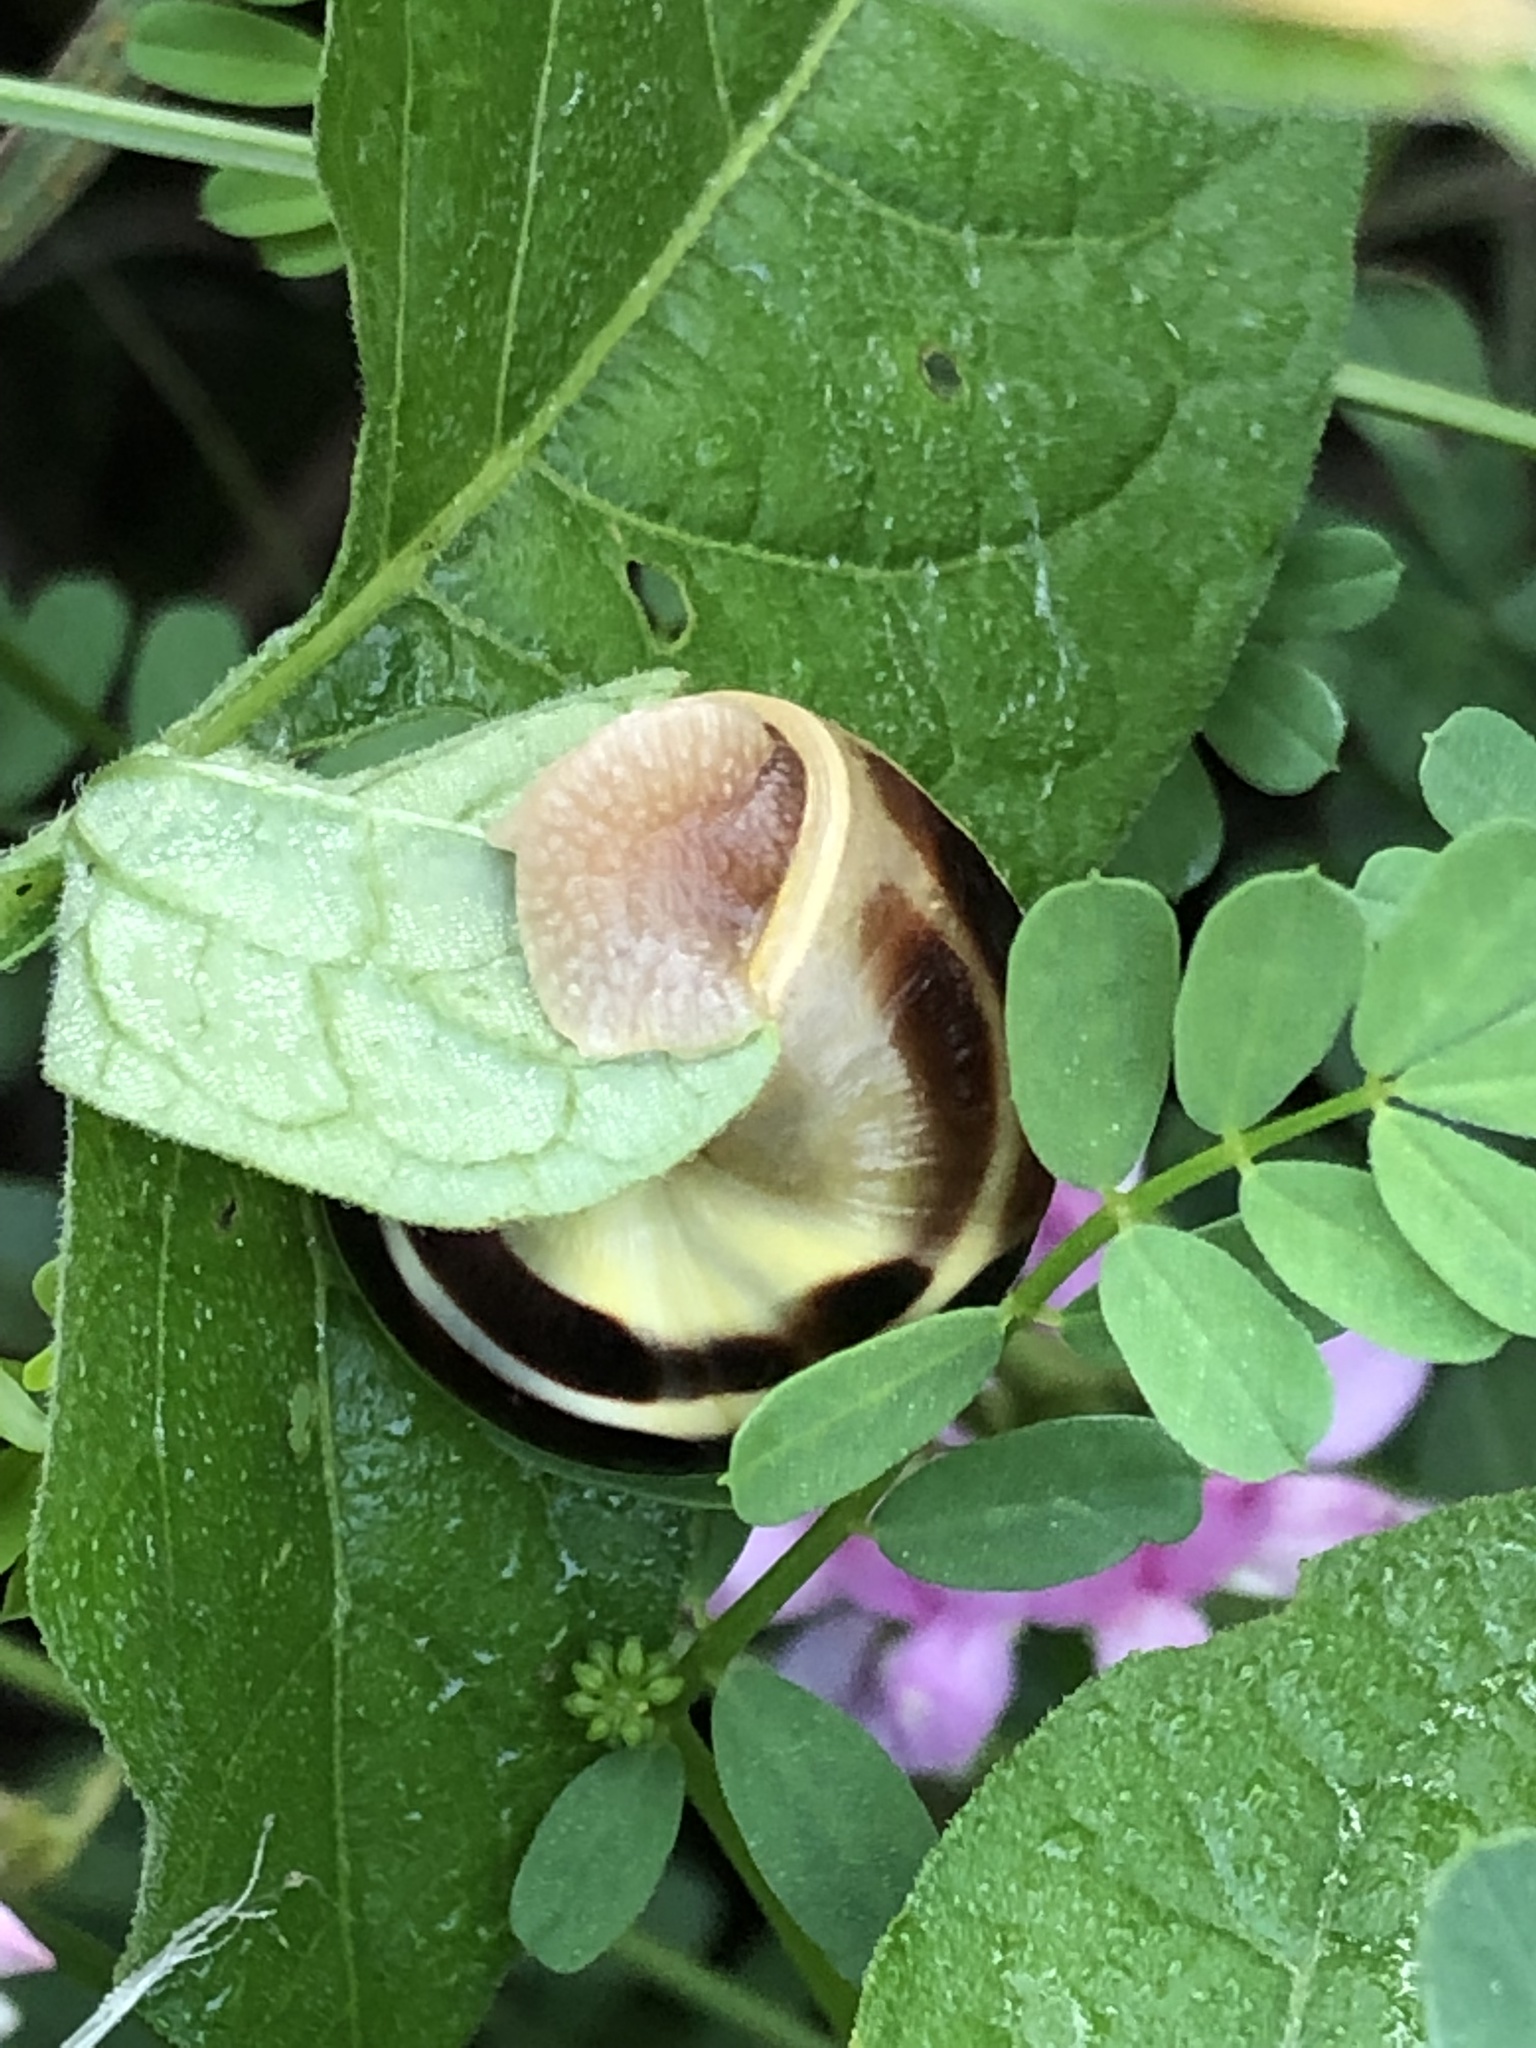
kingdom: Animalia
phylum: Mollusca
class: Gastropoda
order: Stylommatophora
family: Helicidae
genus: Cepaea
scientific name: Cepaea nemoralis
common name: Grovesnail
